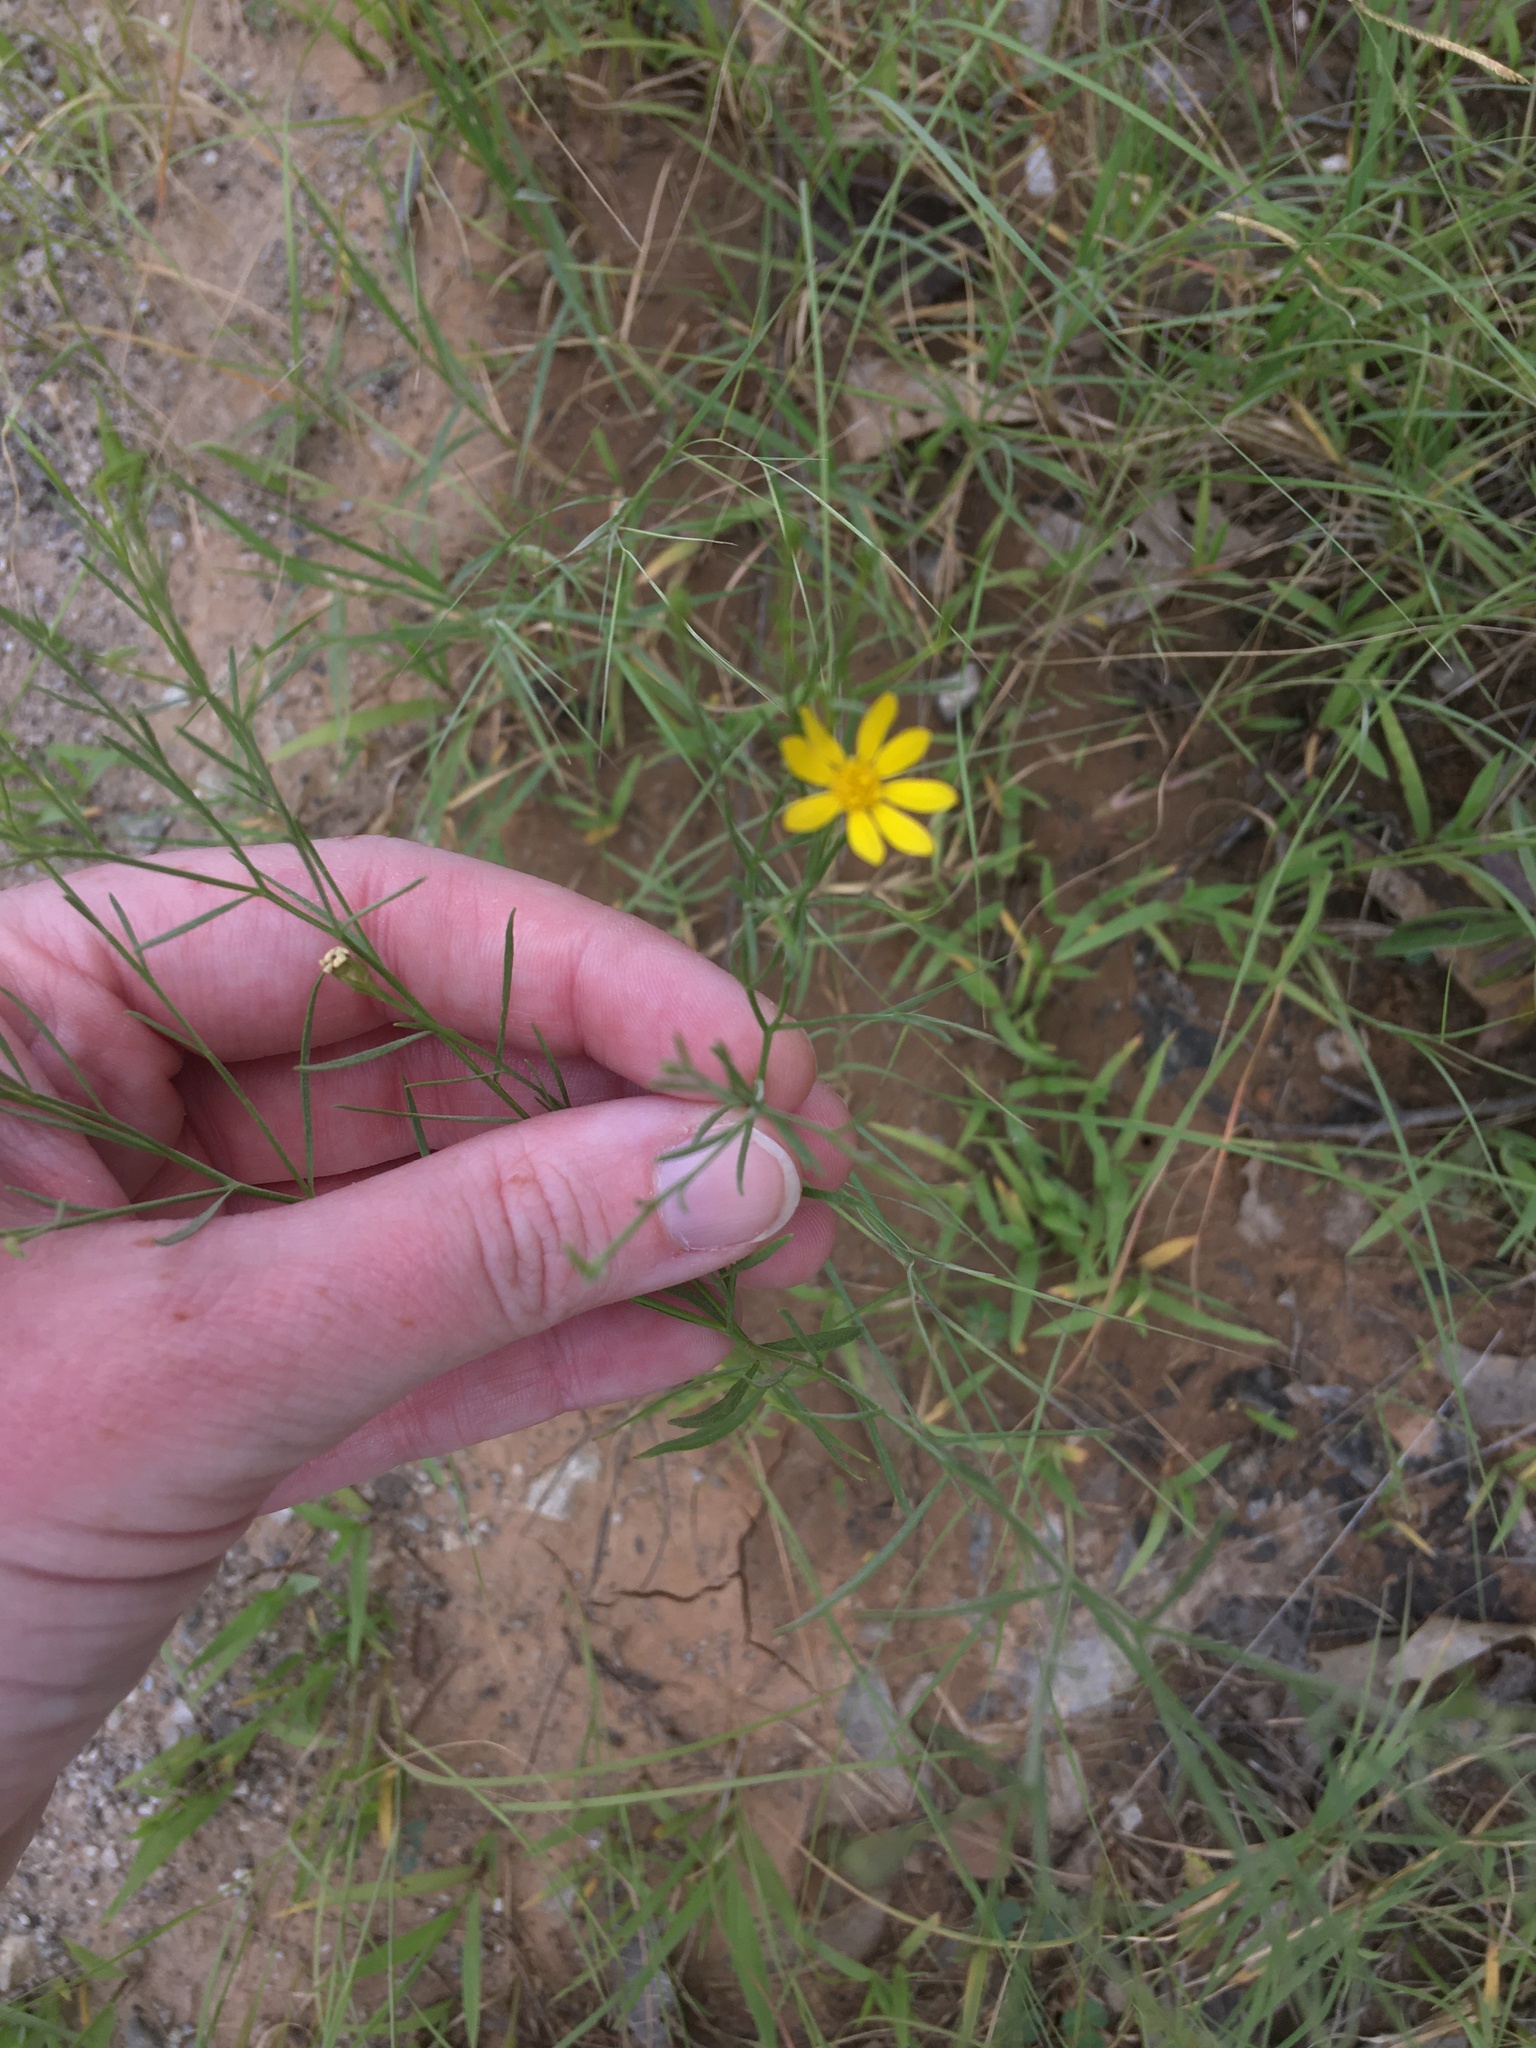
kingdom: Plantae
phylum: Tracheophyta
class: Magnoliopsida
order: Asterales
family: Asteraceae
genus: Amphiachyris
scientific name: Amphiachyris dracunculoides
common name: Broomweed
